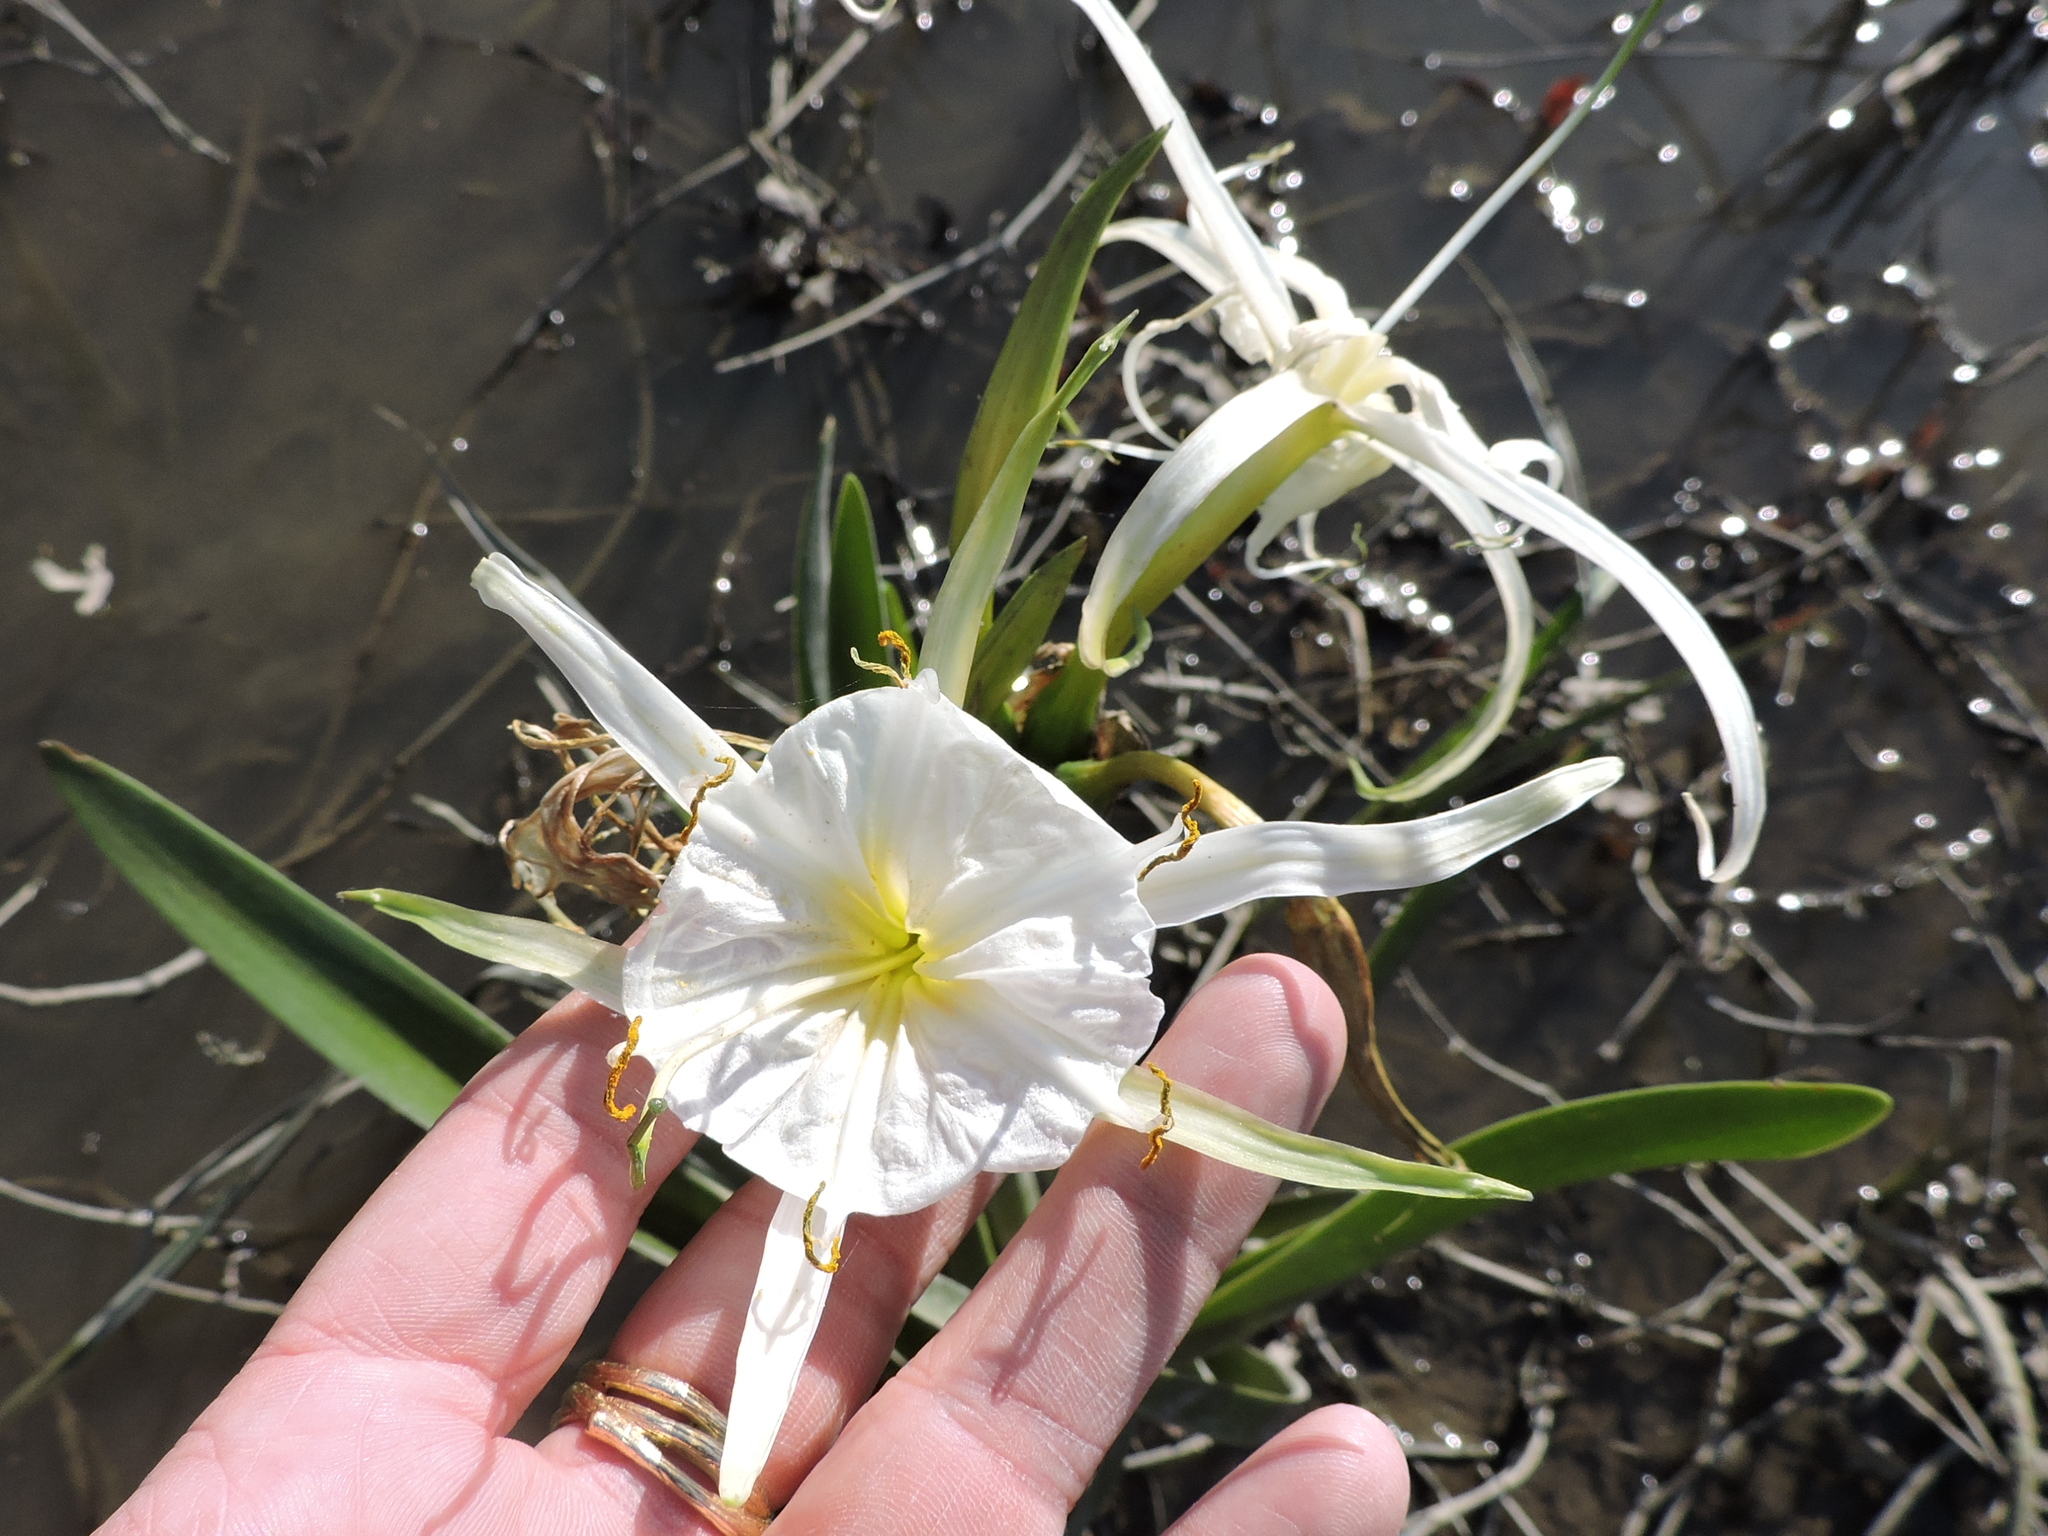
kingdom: Plantae
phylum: Tracheophyta
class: Liliopsida
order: Asparagales
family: Amaryllidaceae
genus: Hymenocallis
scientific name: Hymenocallis liriosme
